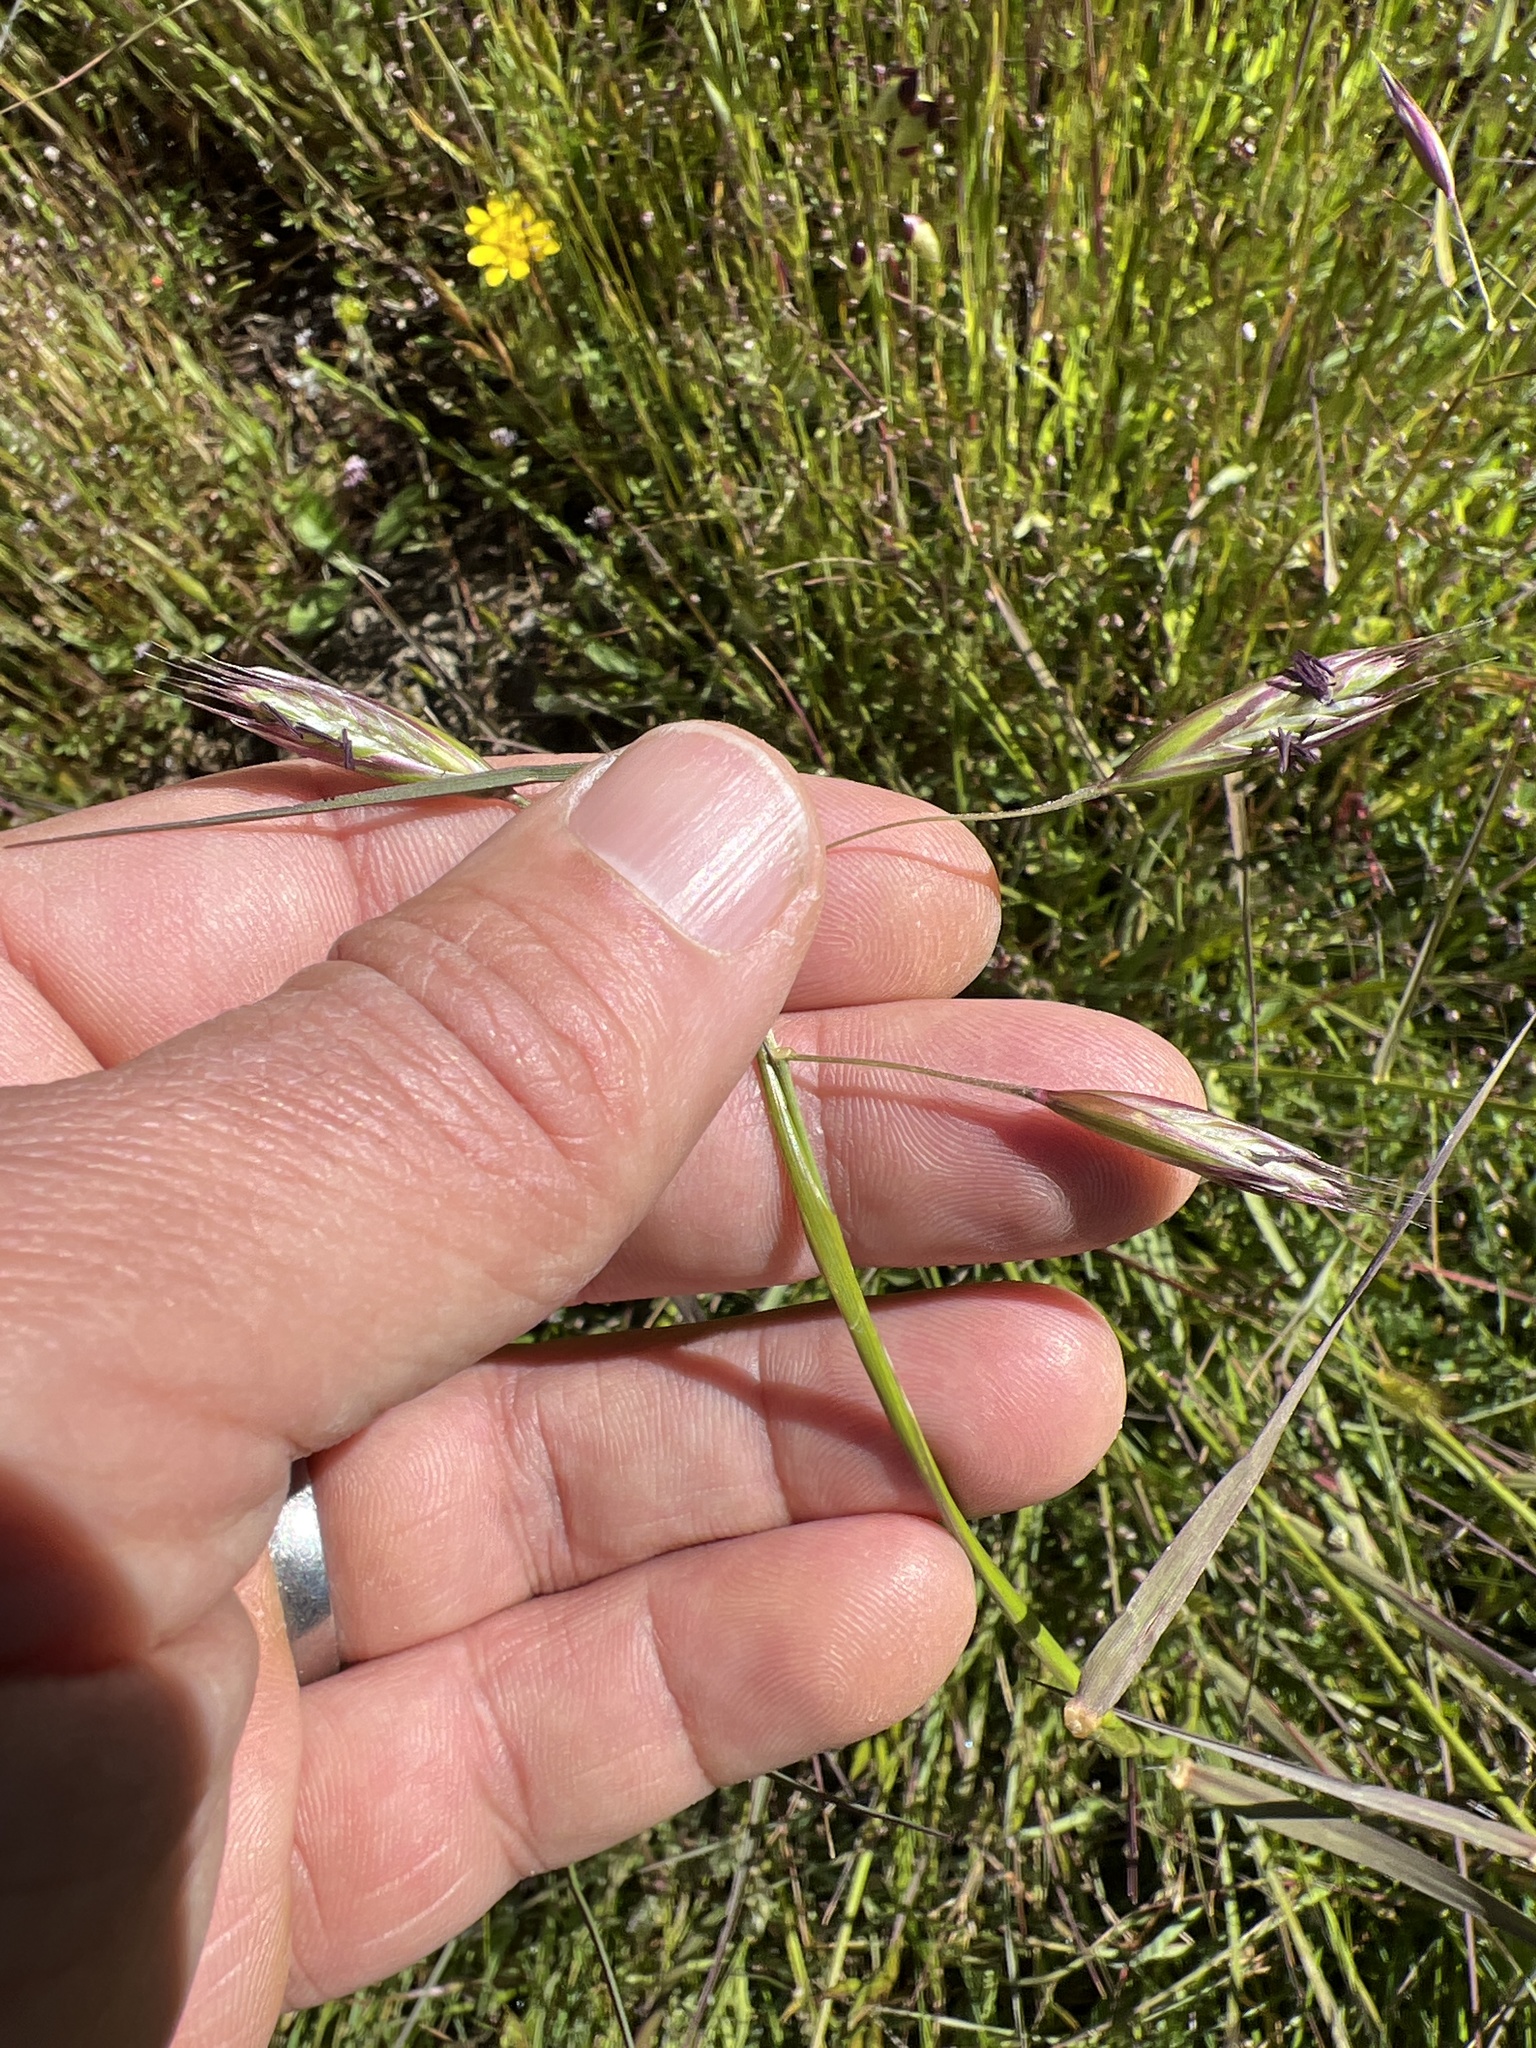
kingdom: Plantae
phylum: Tracheophyta
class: Liliopsida
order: Poales
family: Poaceae
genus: Danthonia
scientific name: Danthonia californica
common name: California oat grass
